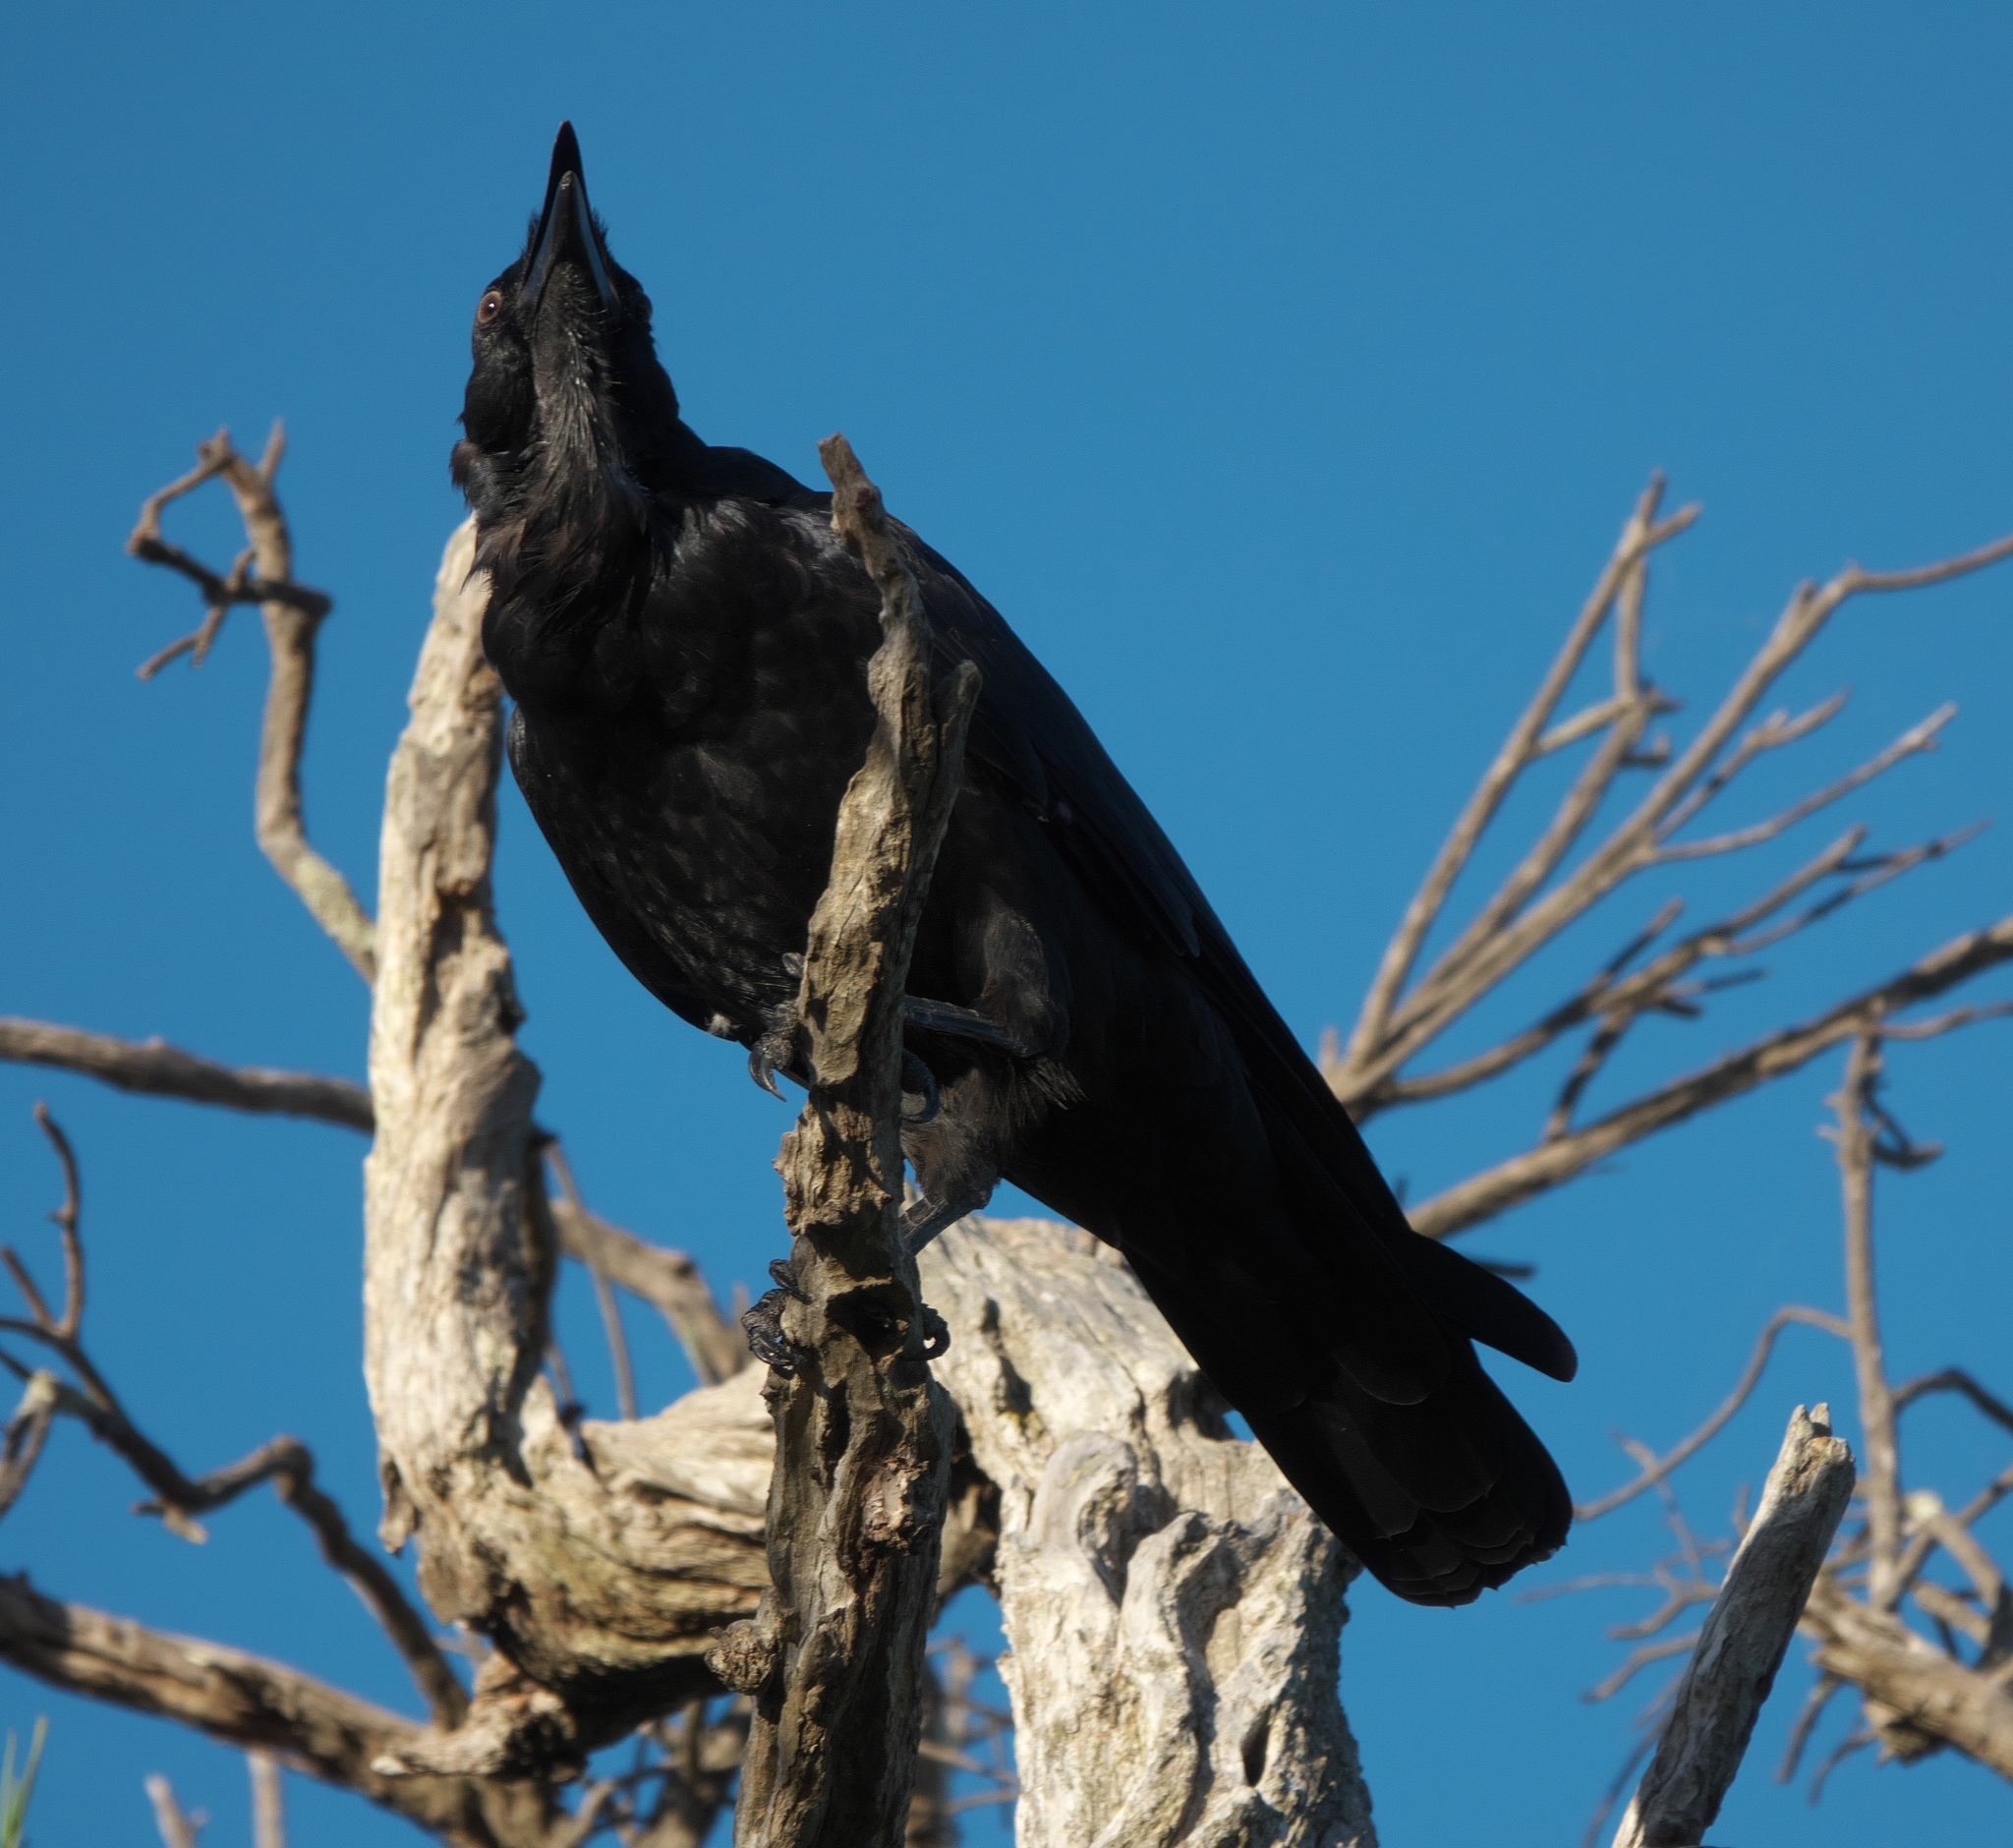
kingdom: Animalia
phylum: Chordata
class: Aves
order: Passeriformes
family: Corvidae
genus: Corvus
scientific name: Corvus coronoides
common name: Australian raven
